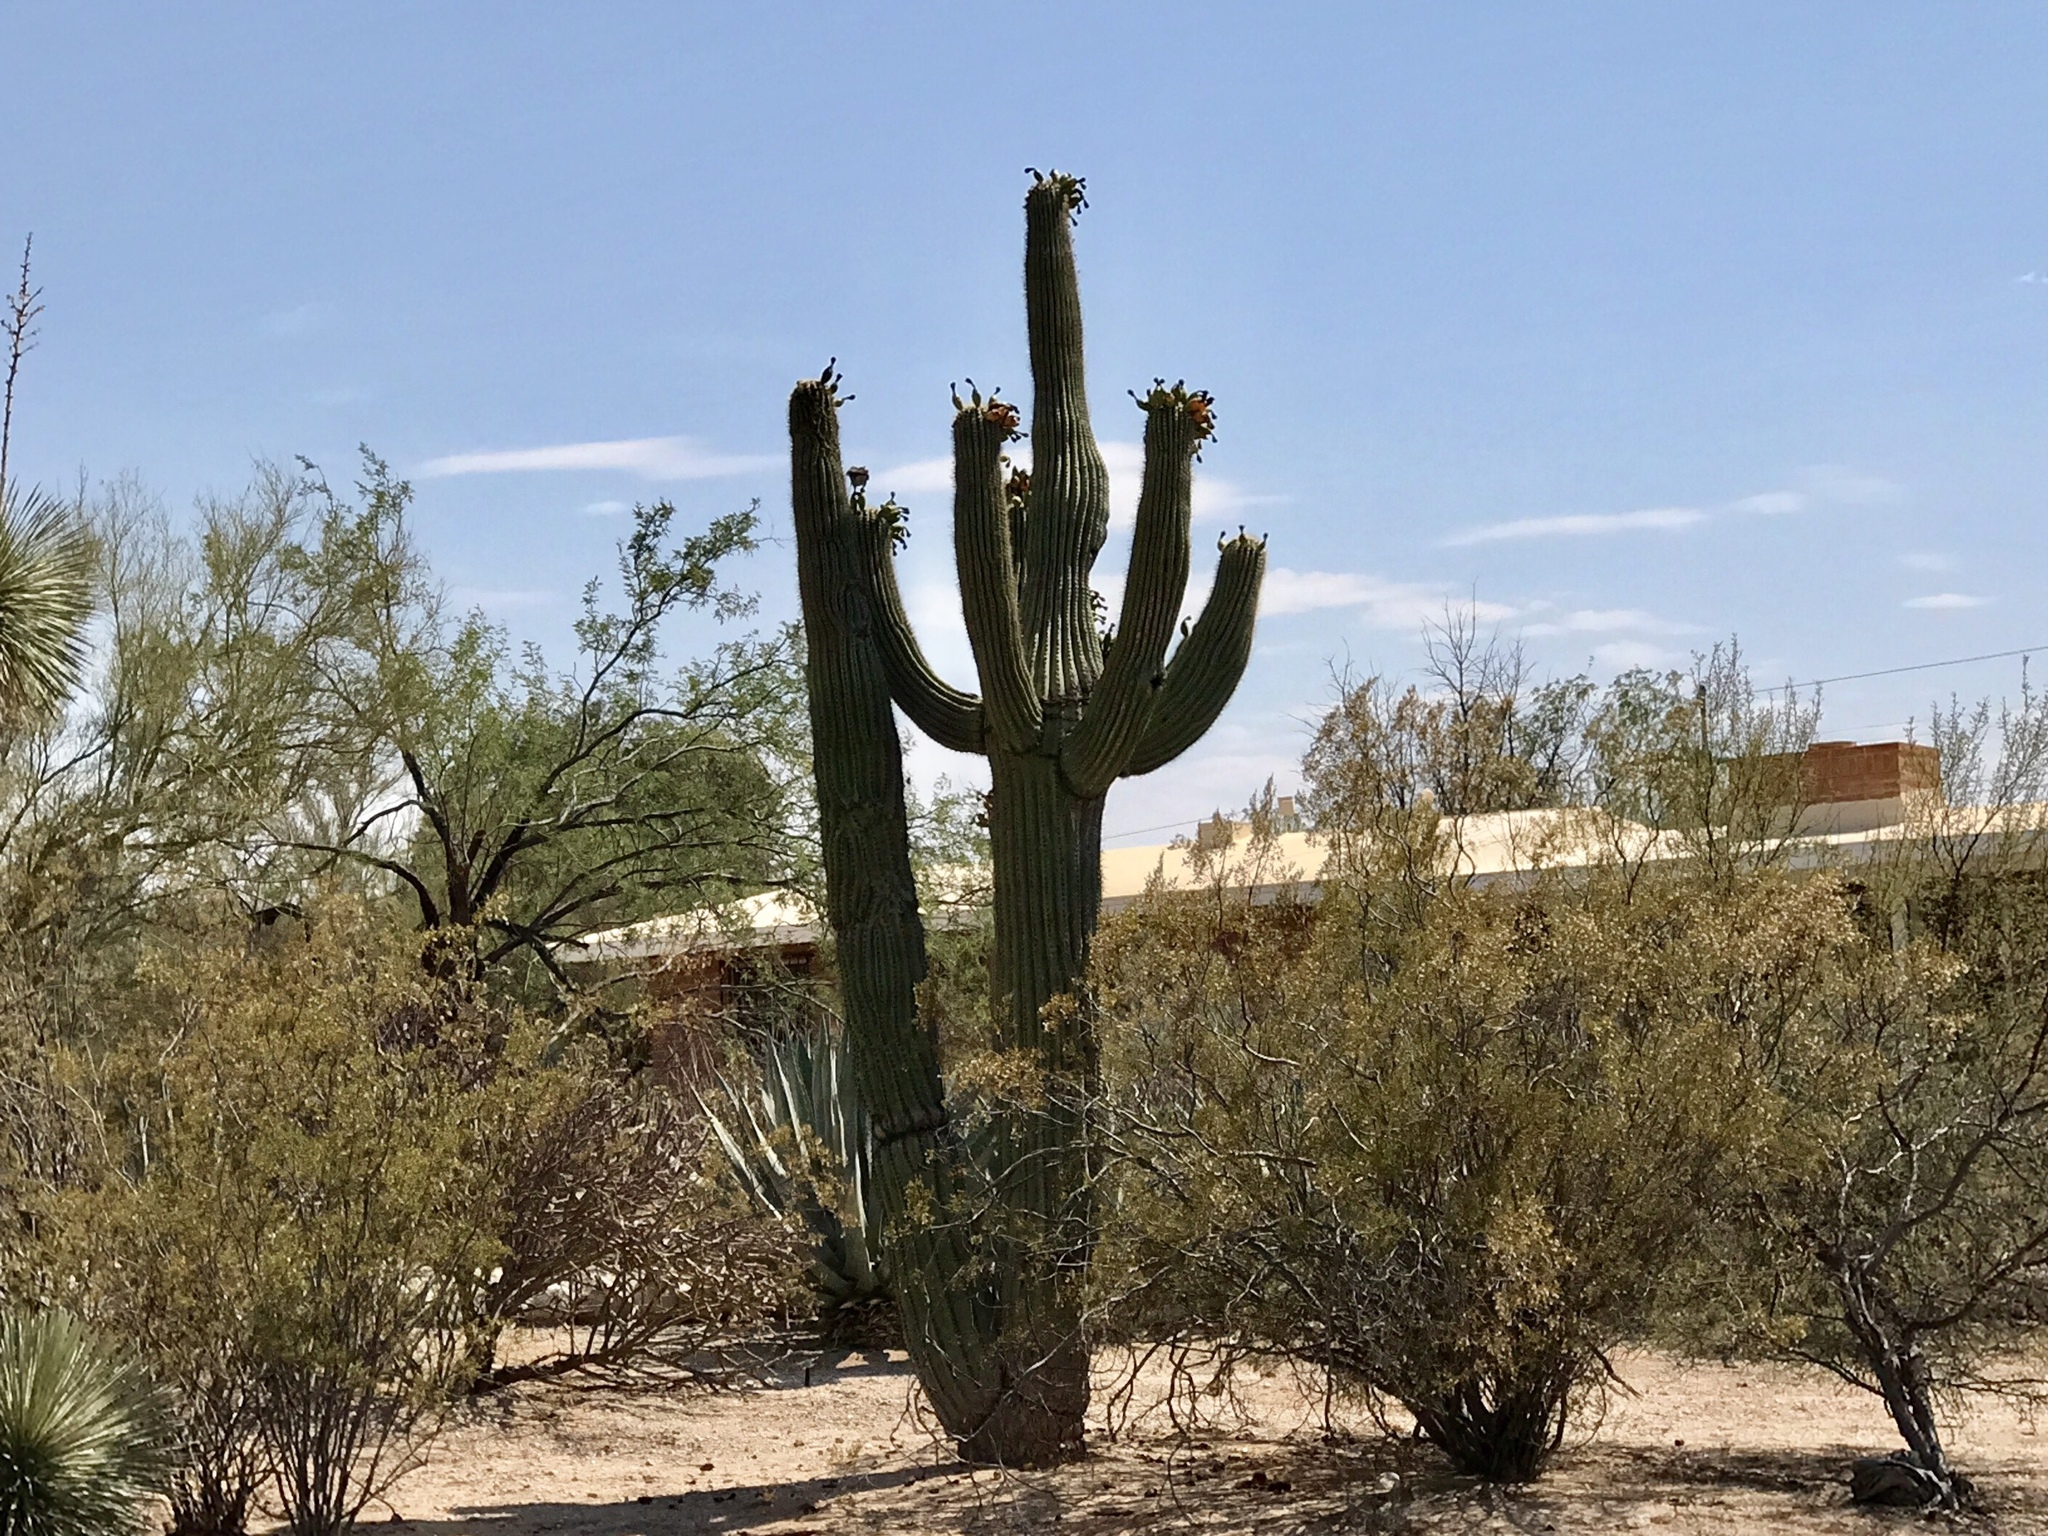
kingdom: Plantae
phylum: Tracheophyta
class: Magnoliopsida
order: Caryophyllales
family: Cactaceae
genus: Carnegiea
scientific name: Carnegiea gigantea
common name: Saguaro
